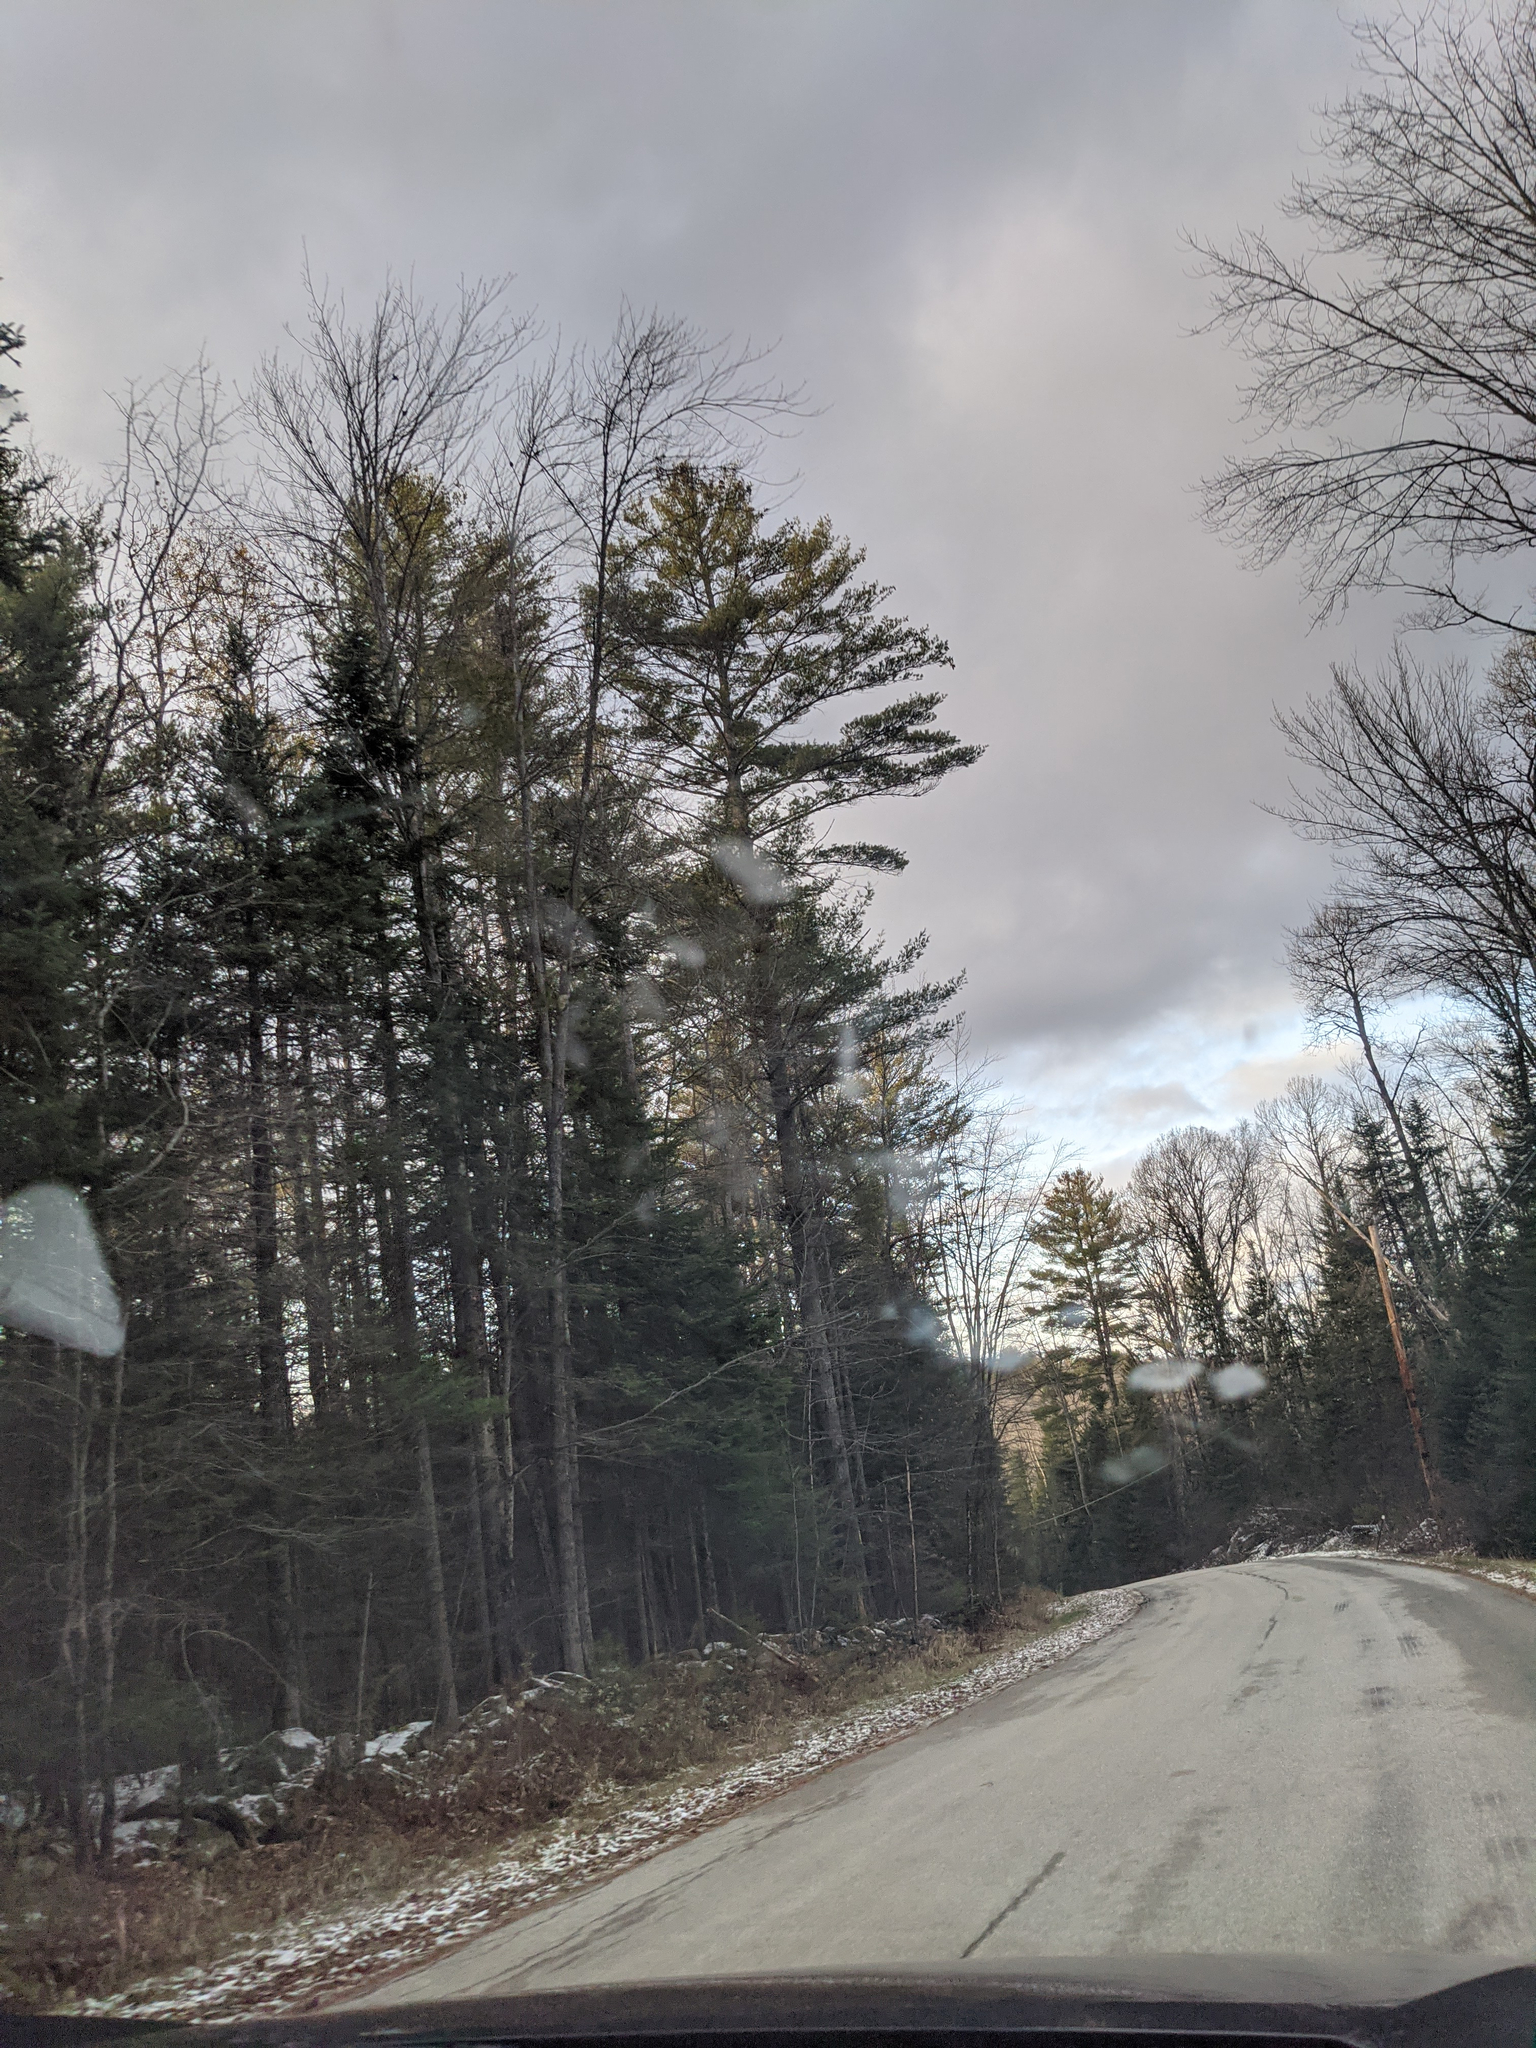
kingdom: Plantae
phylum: Tracheophyta
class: Pinopsida
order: Pinales
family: Pinaceae
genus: Pinus
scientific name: Pinus strobus
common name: Weymouth pine
